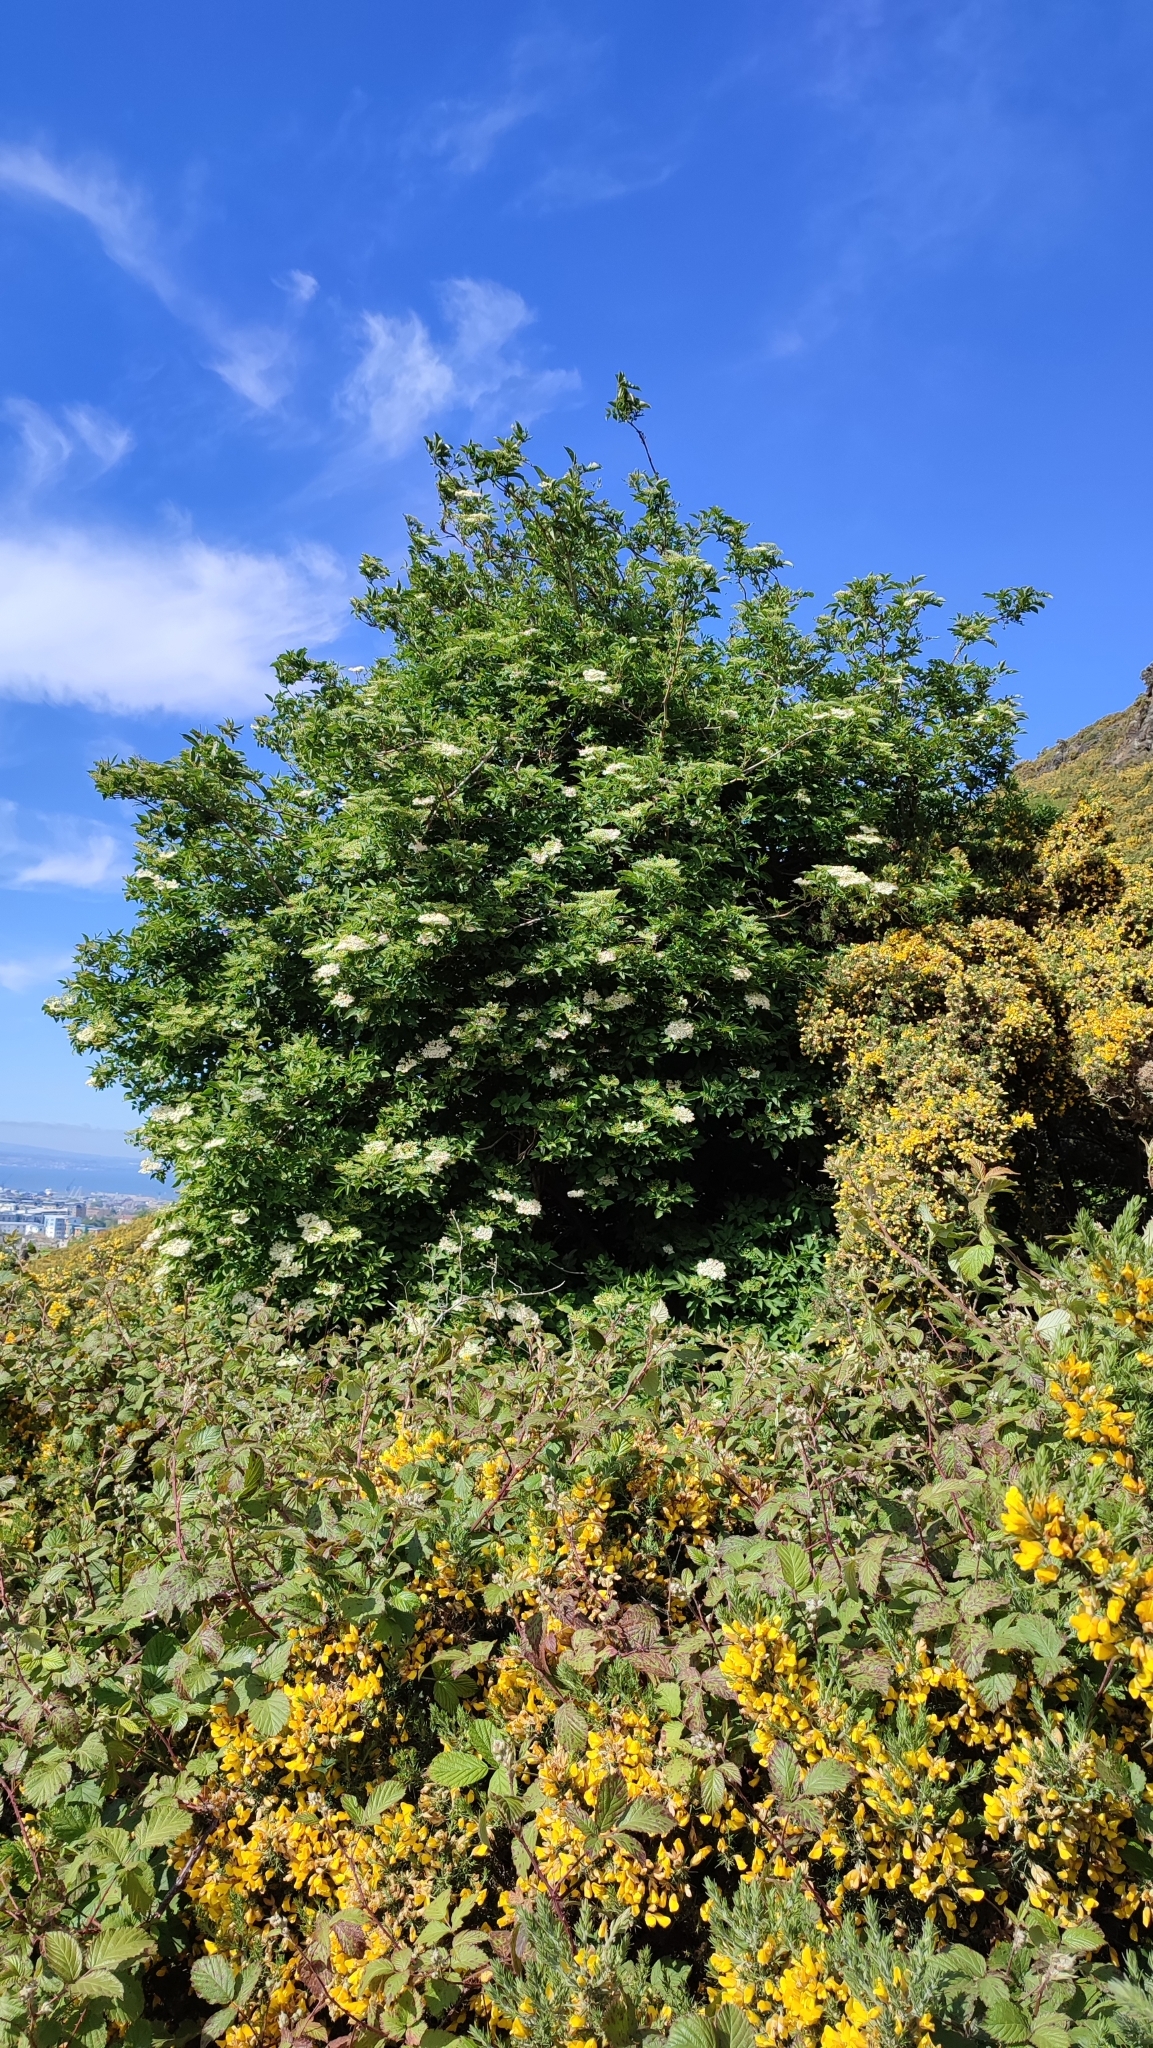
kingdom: Plantae
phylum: Tracheophyta
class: Magnoliopsida
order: Dipsacales
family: Viburnaceae
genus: Sambucus
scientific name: Sambucus nigra
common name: Elder
